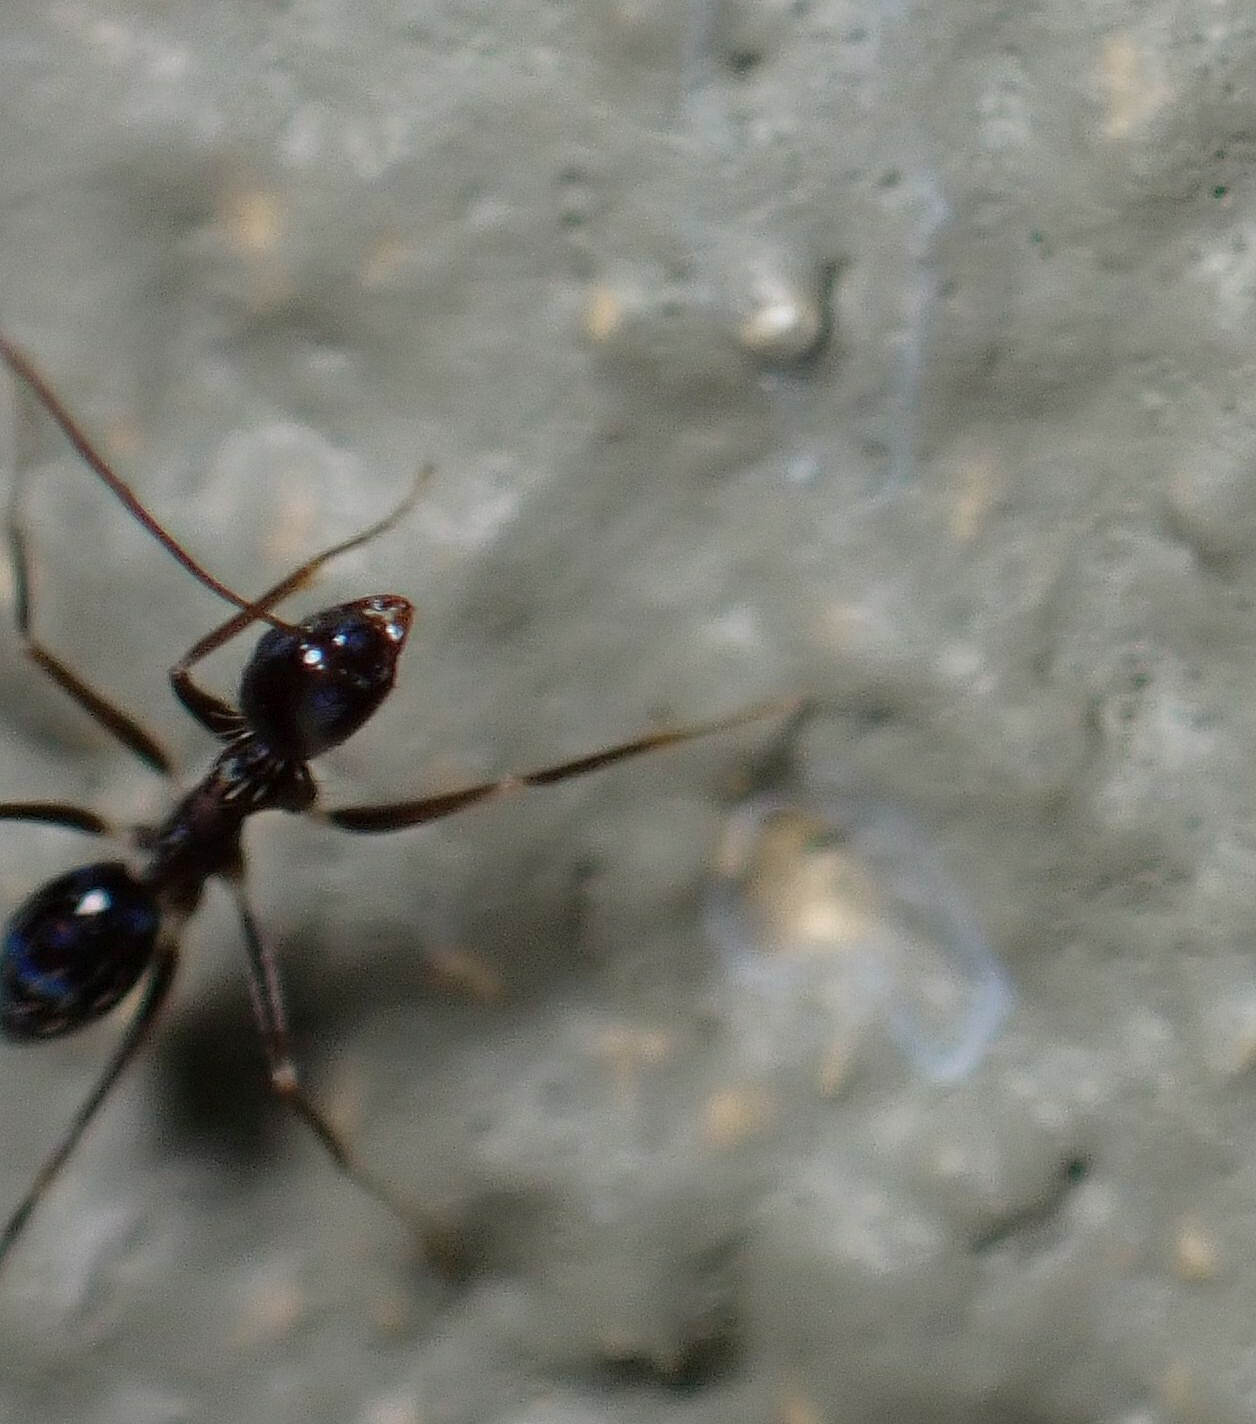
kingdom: Animalia
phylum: Arthropoda
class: Insecta
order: Hymenoptera
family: Formicidae
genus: Paratrechina
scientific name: Paratrechina longicornis
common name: Longhorned crazy ant
